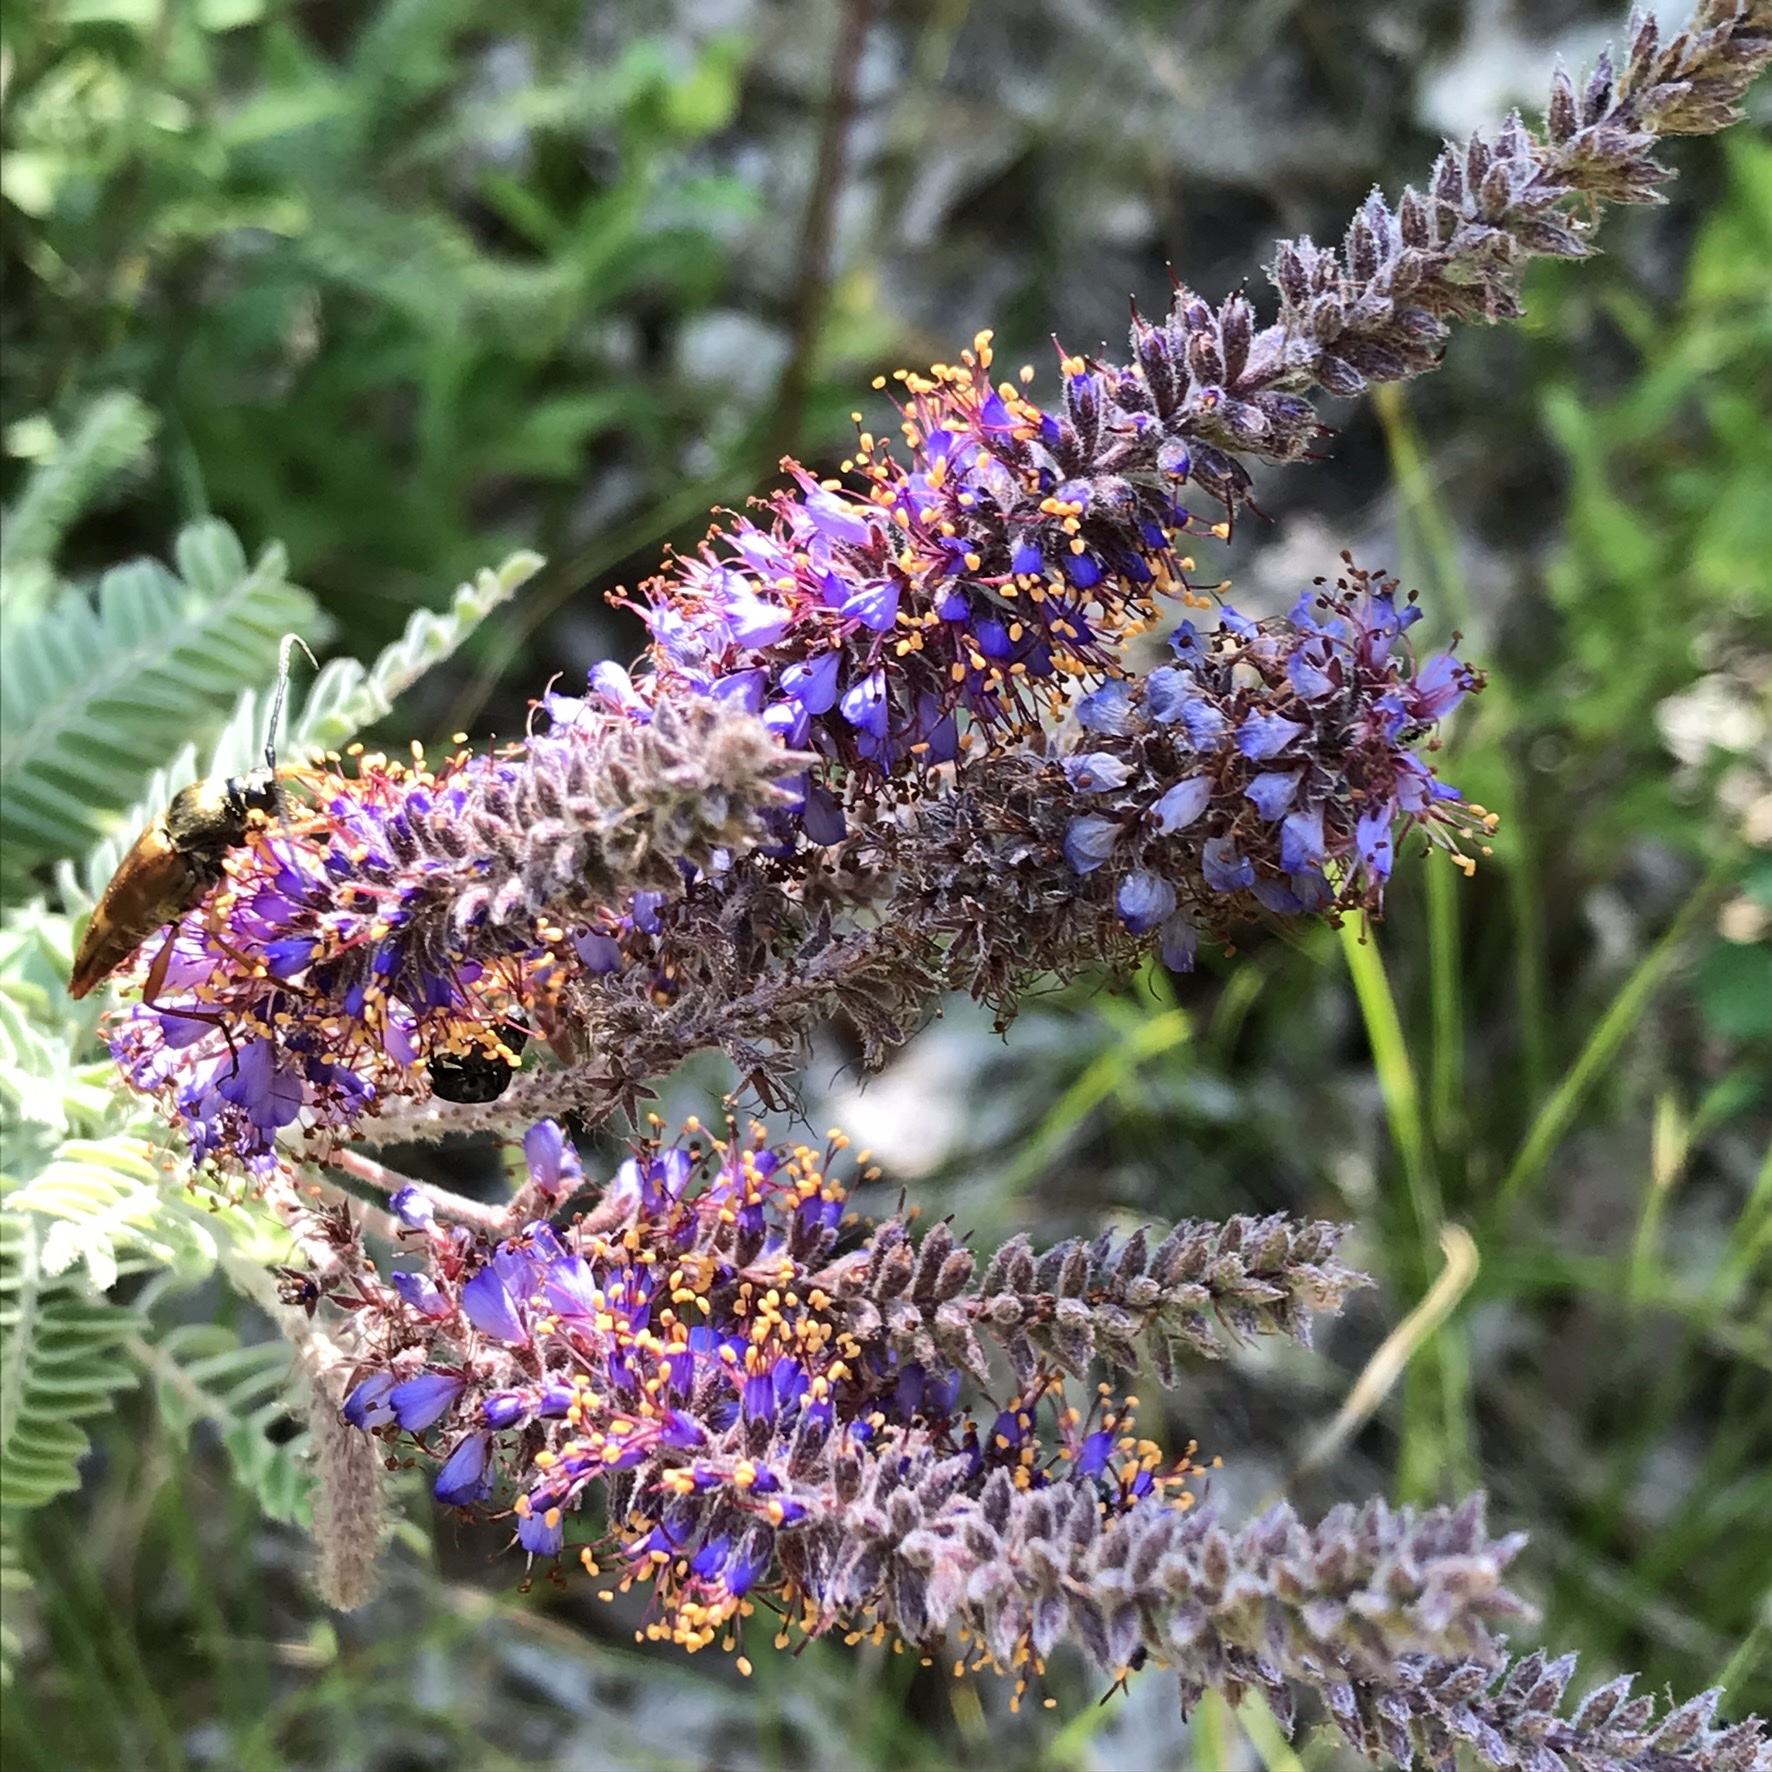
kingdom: Plantae
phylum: Tracheophyta
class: Magnoliopsida
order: Fabales
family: Fabaceae
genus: Amorpha
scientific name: Amorpha canescens
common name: Leadplant
